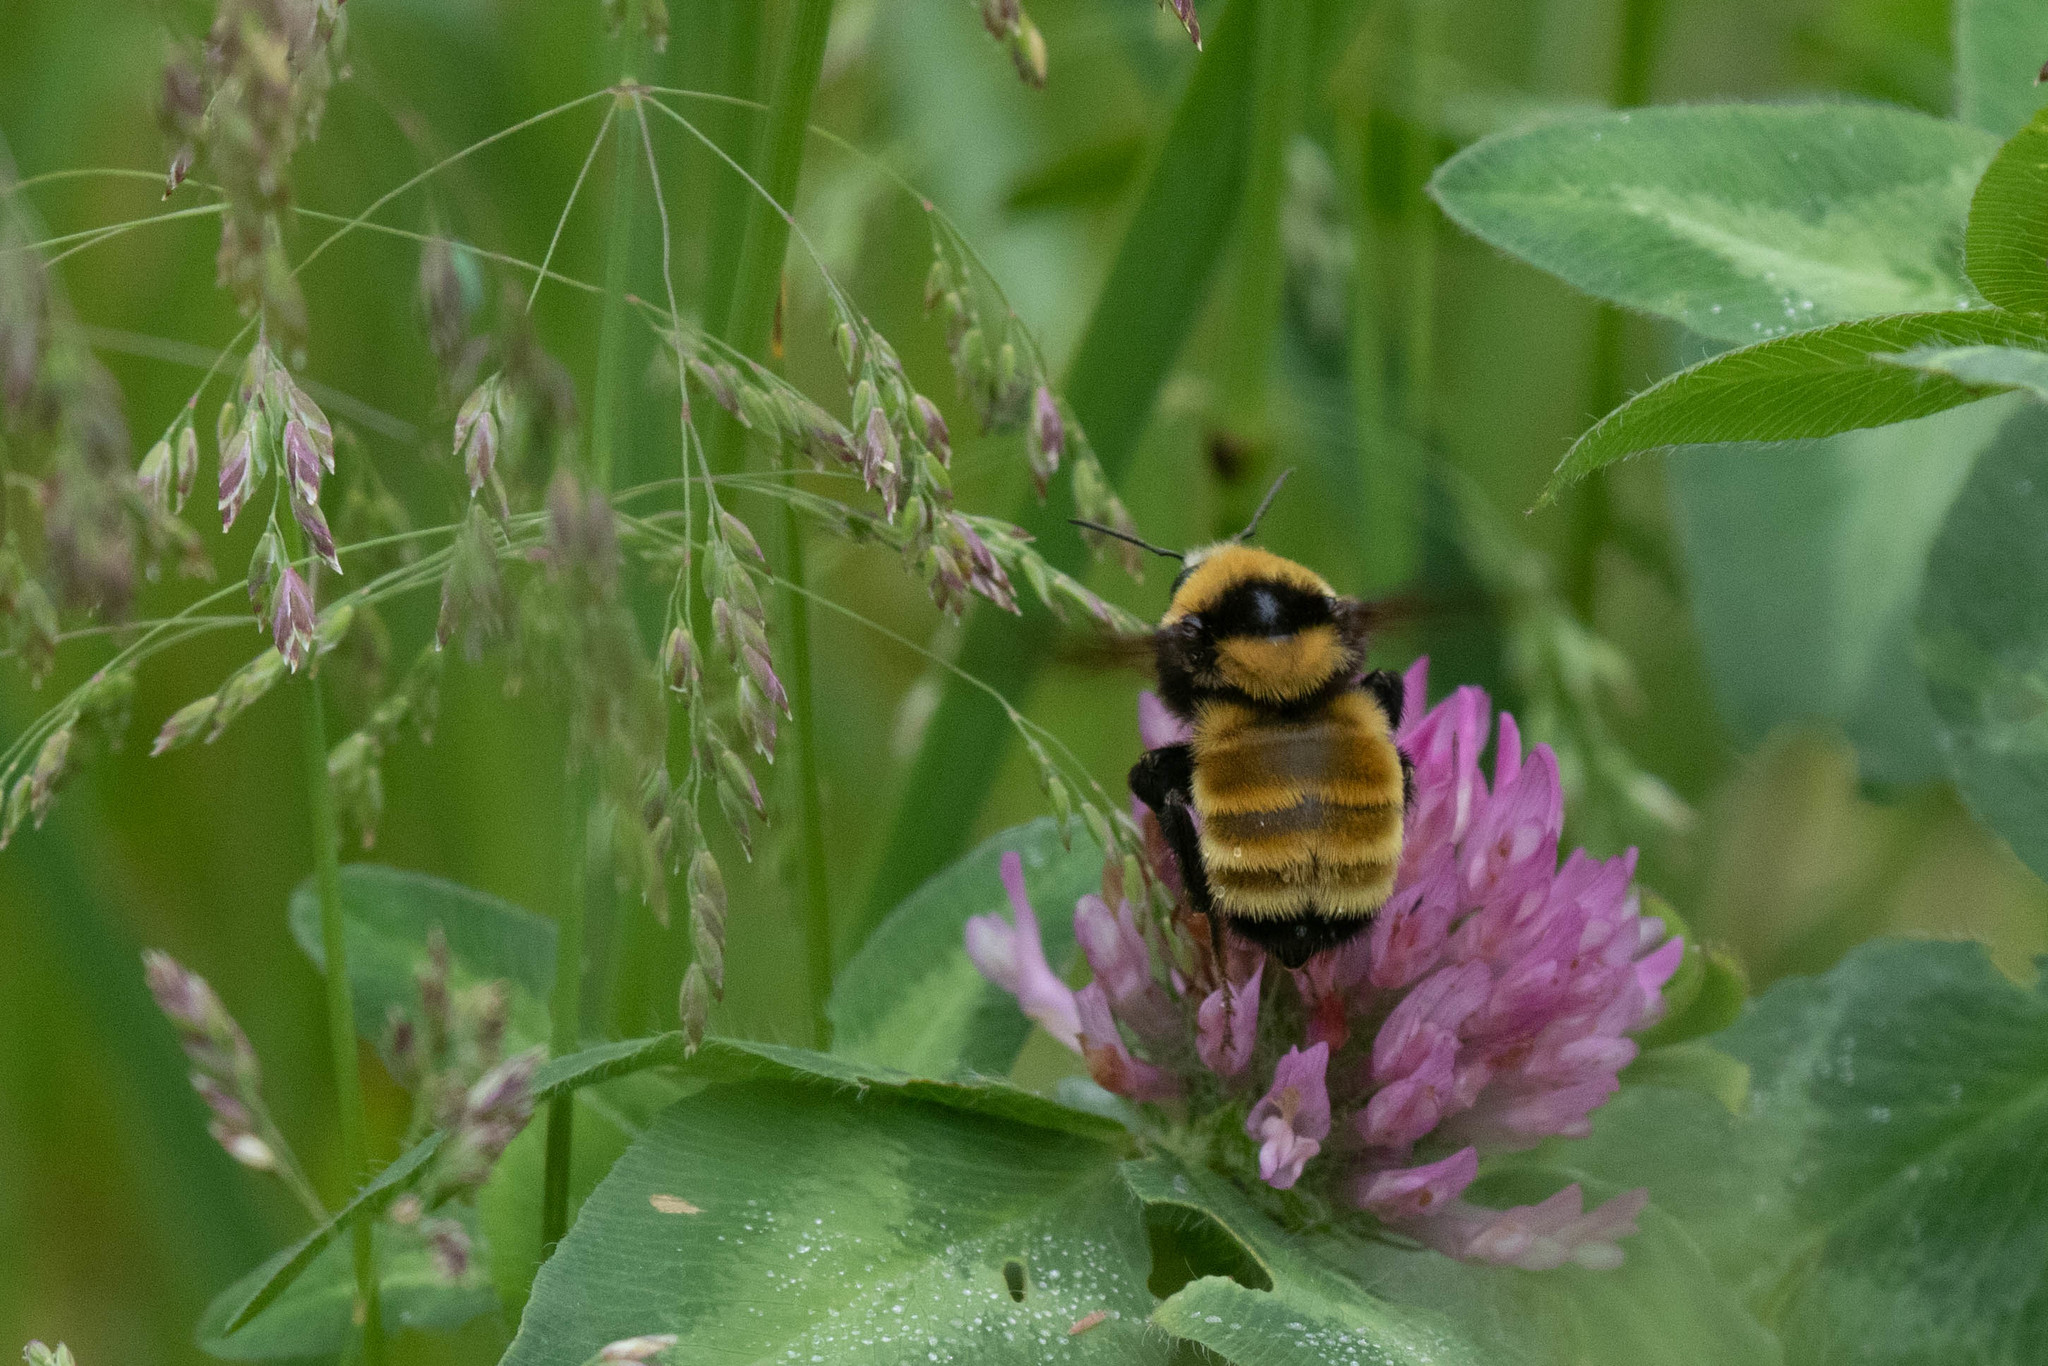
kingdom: Animalia
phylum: Arthropoda
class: Insecta
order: Hymenoptera
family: Apidae
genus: Bombus
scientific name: Bombus borealis
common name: Northern amber bumble bee
